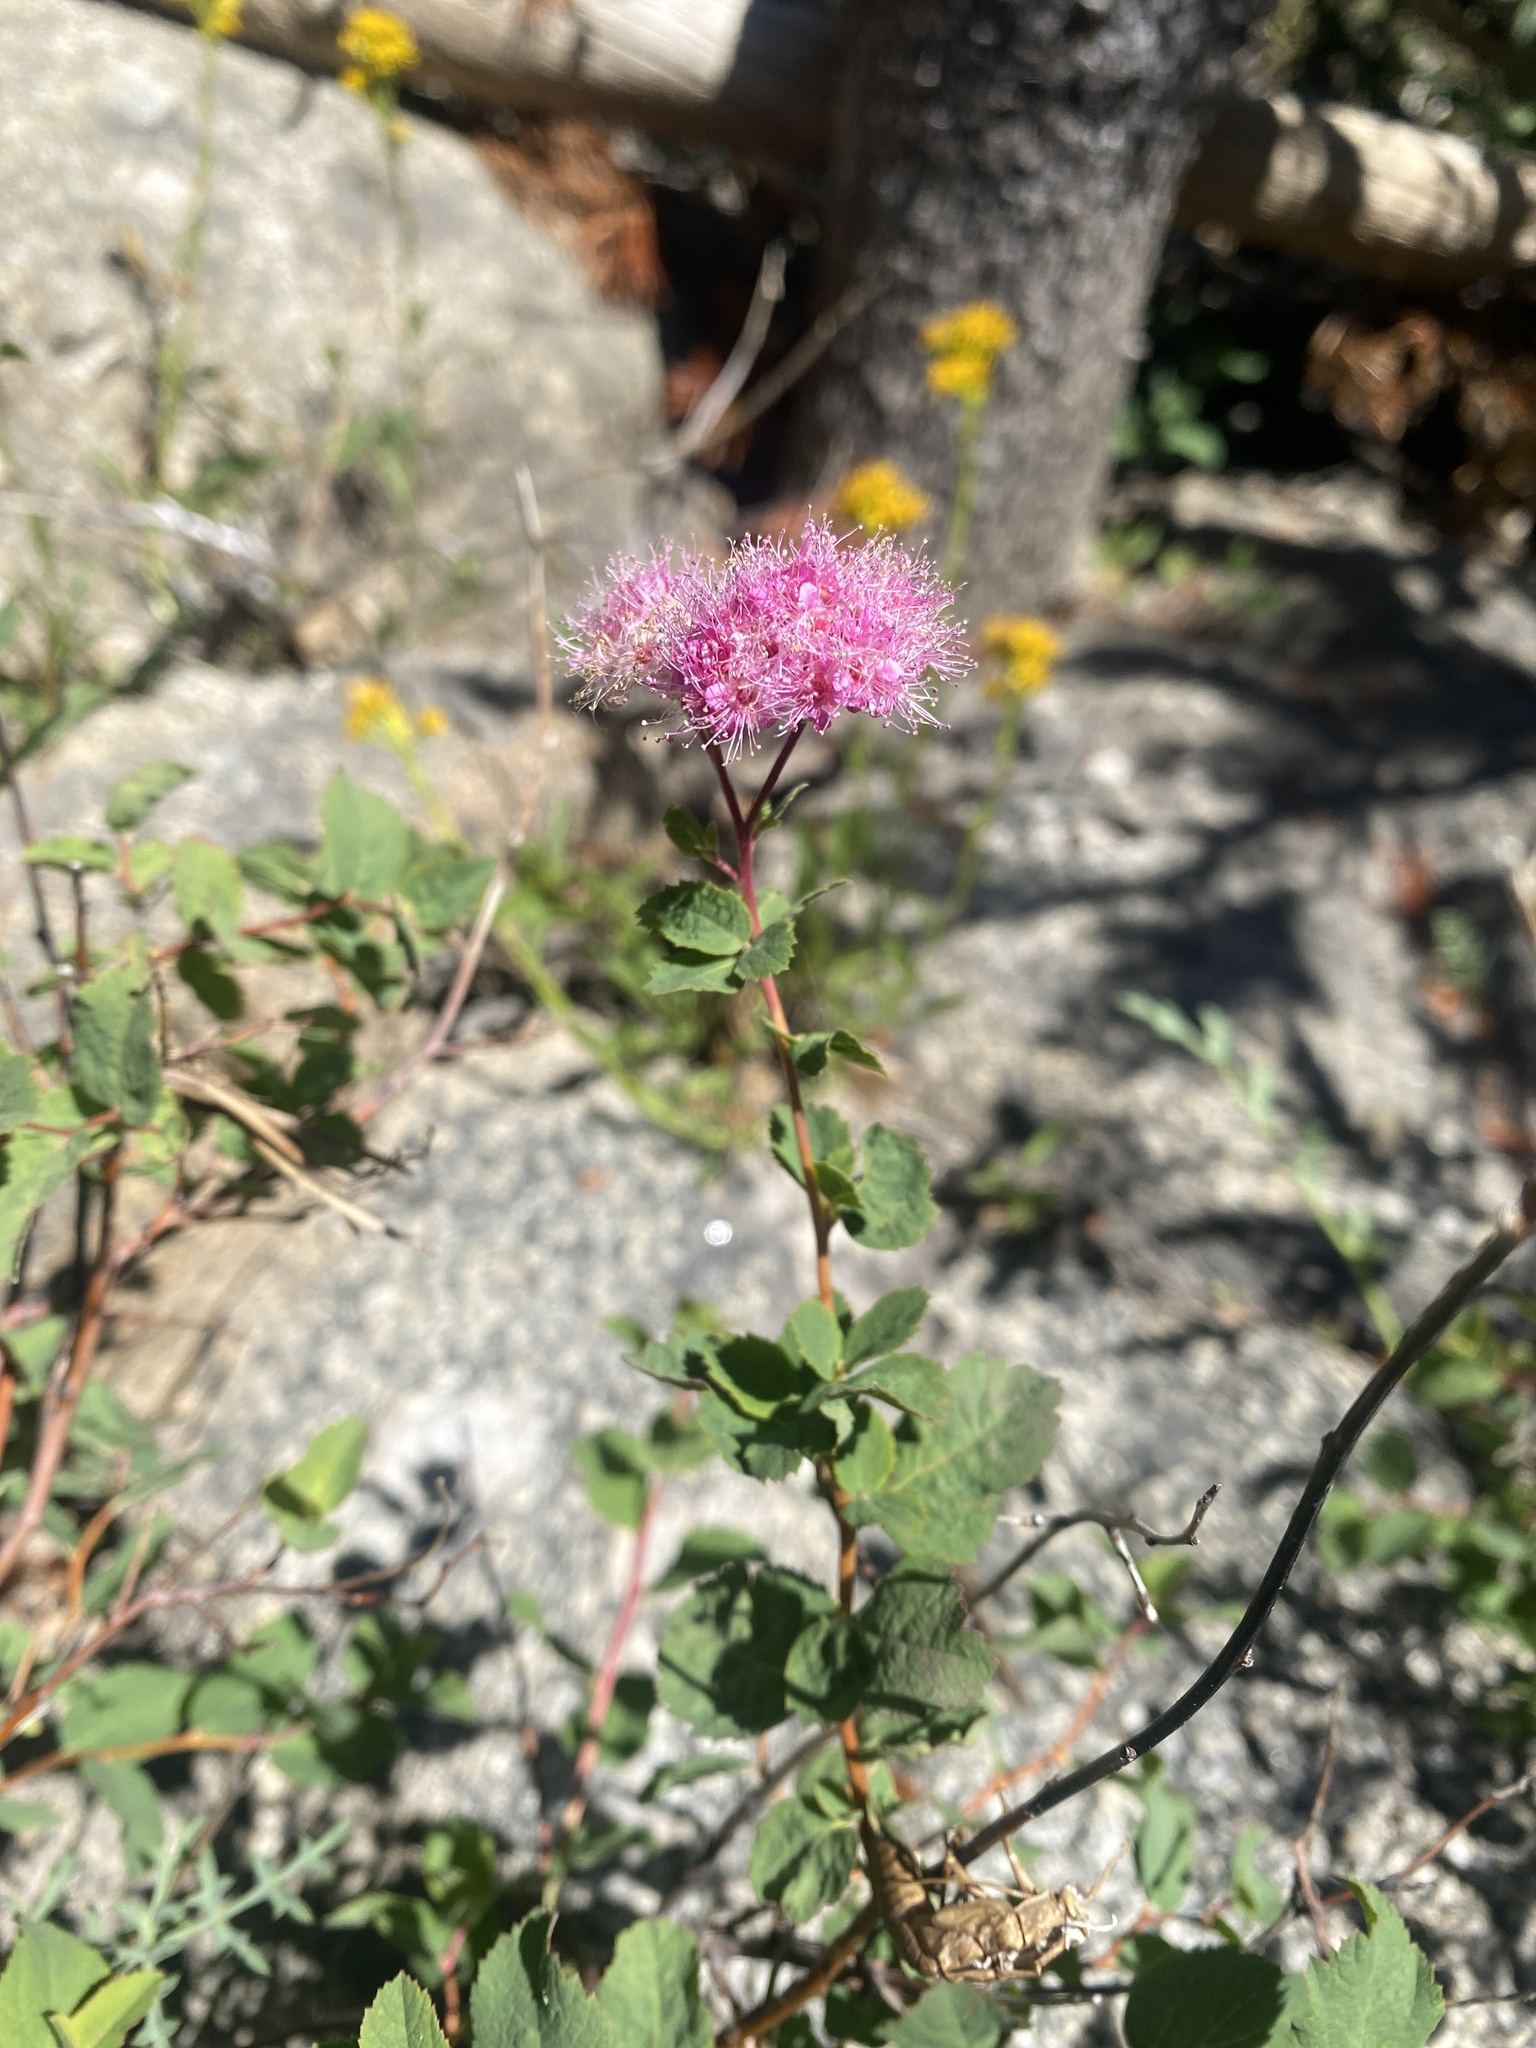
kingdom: Plantae
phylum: Tracheophyta
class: Magnoliopsida
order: Rosales
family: Rosaceae
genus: Spiraea
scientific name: Spiraea splendens
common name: Subalpine meadowsweet
